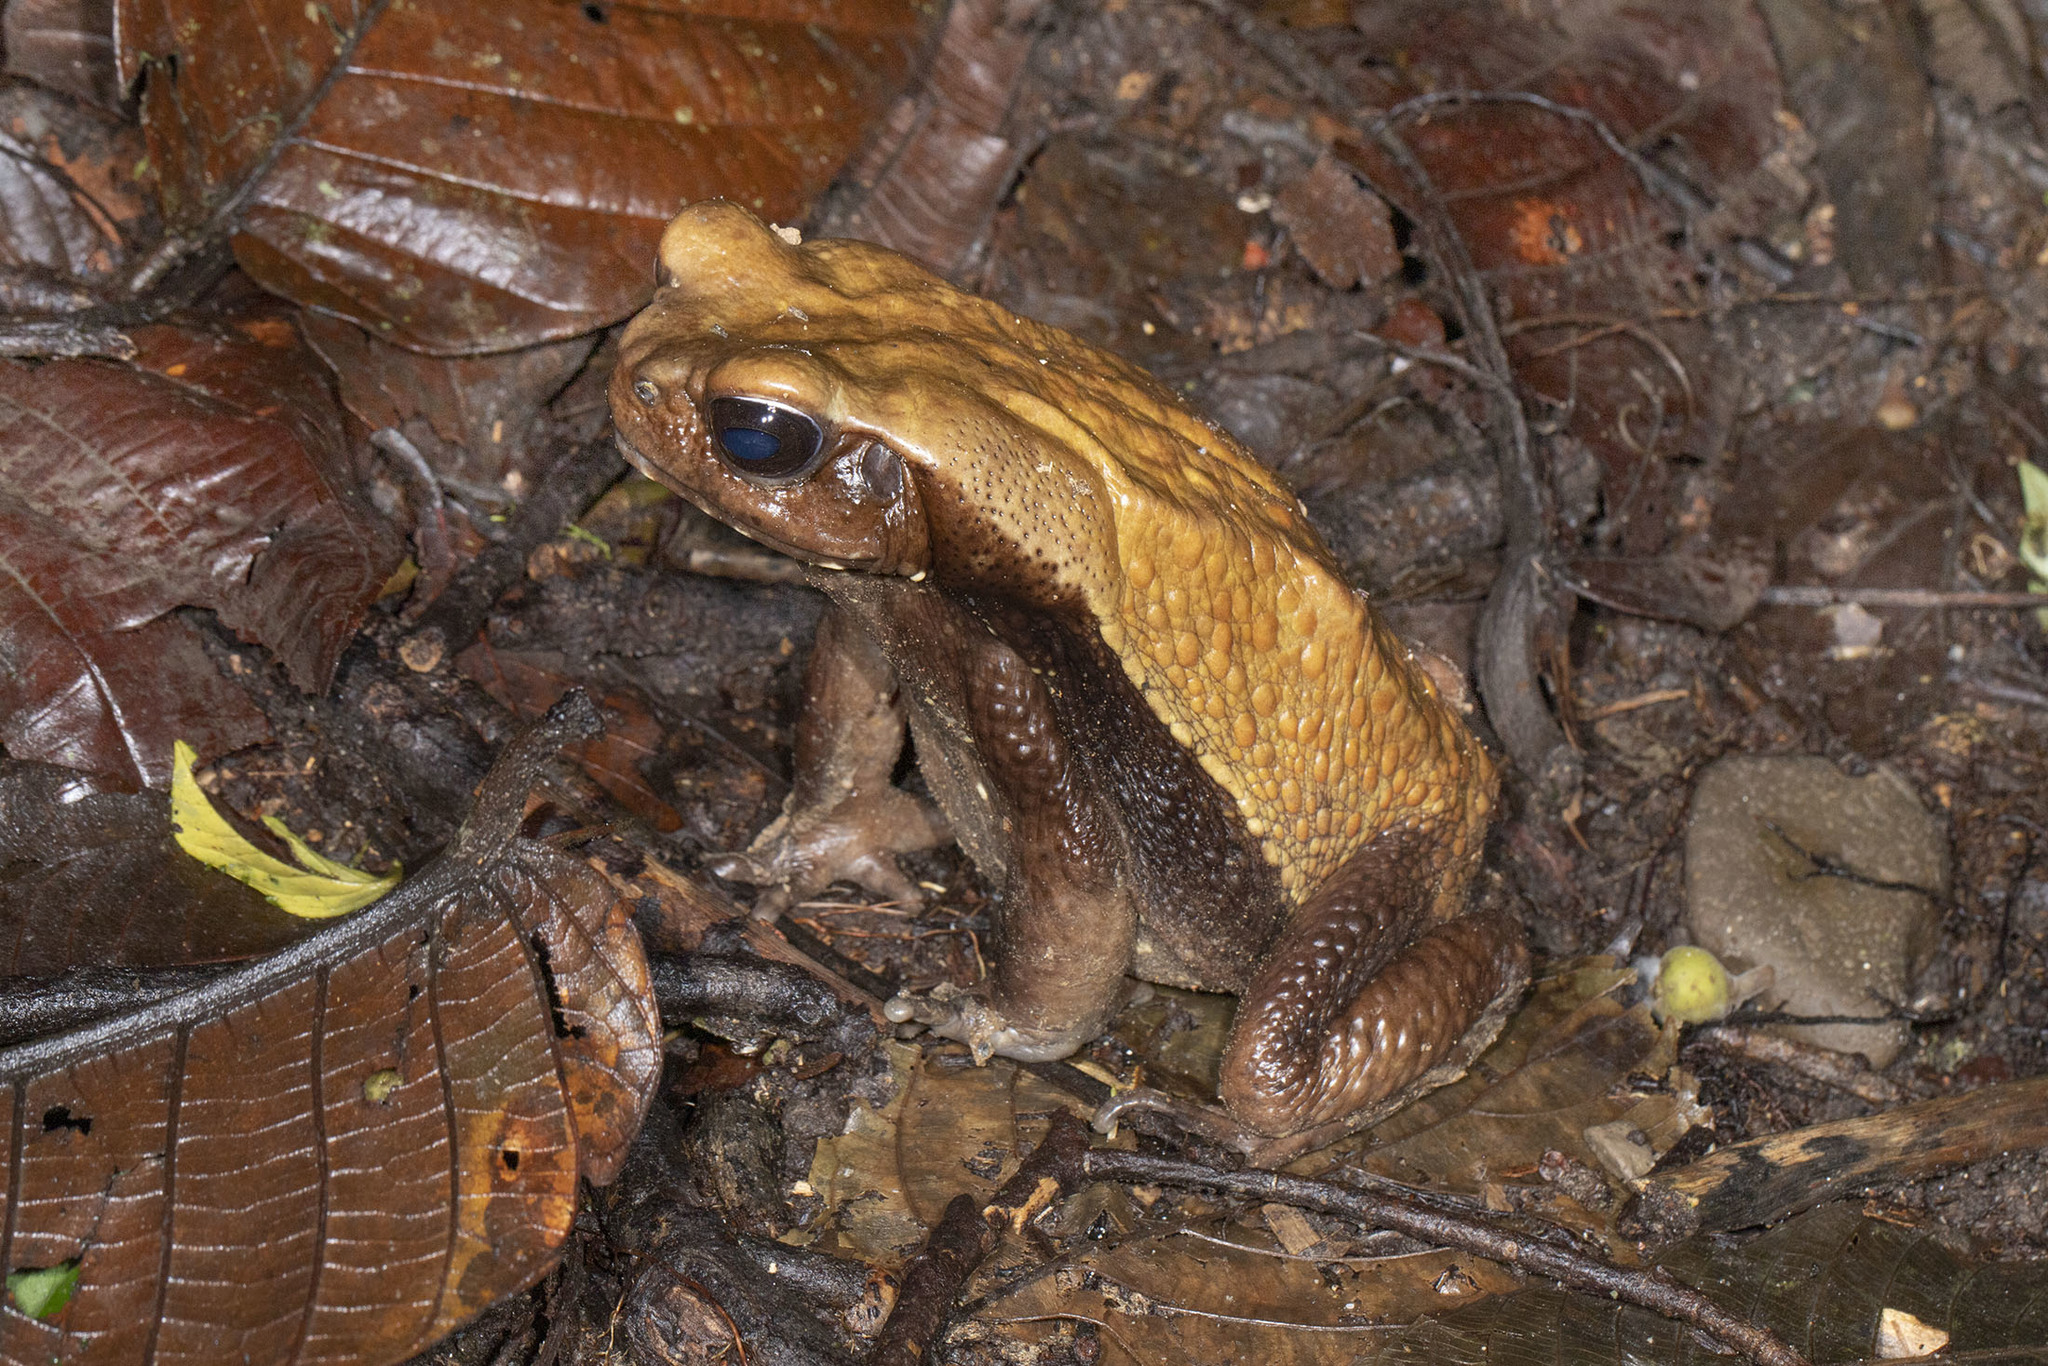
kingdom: Animalia
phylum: Chordata
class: Amphibia
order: Anura
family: Bufonidae
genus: Rhaebo
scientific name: Rhaebo guttatus
